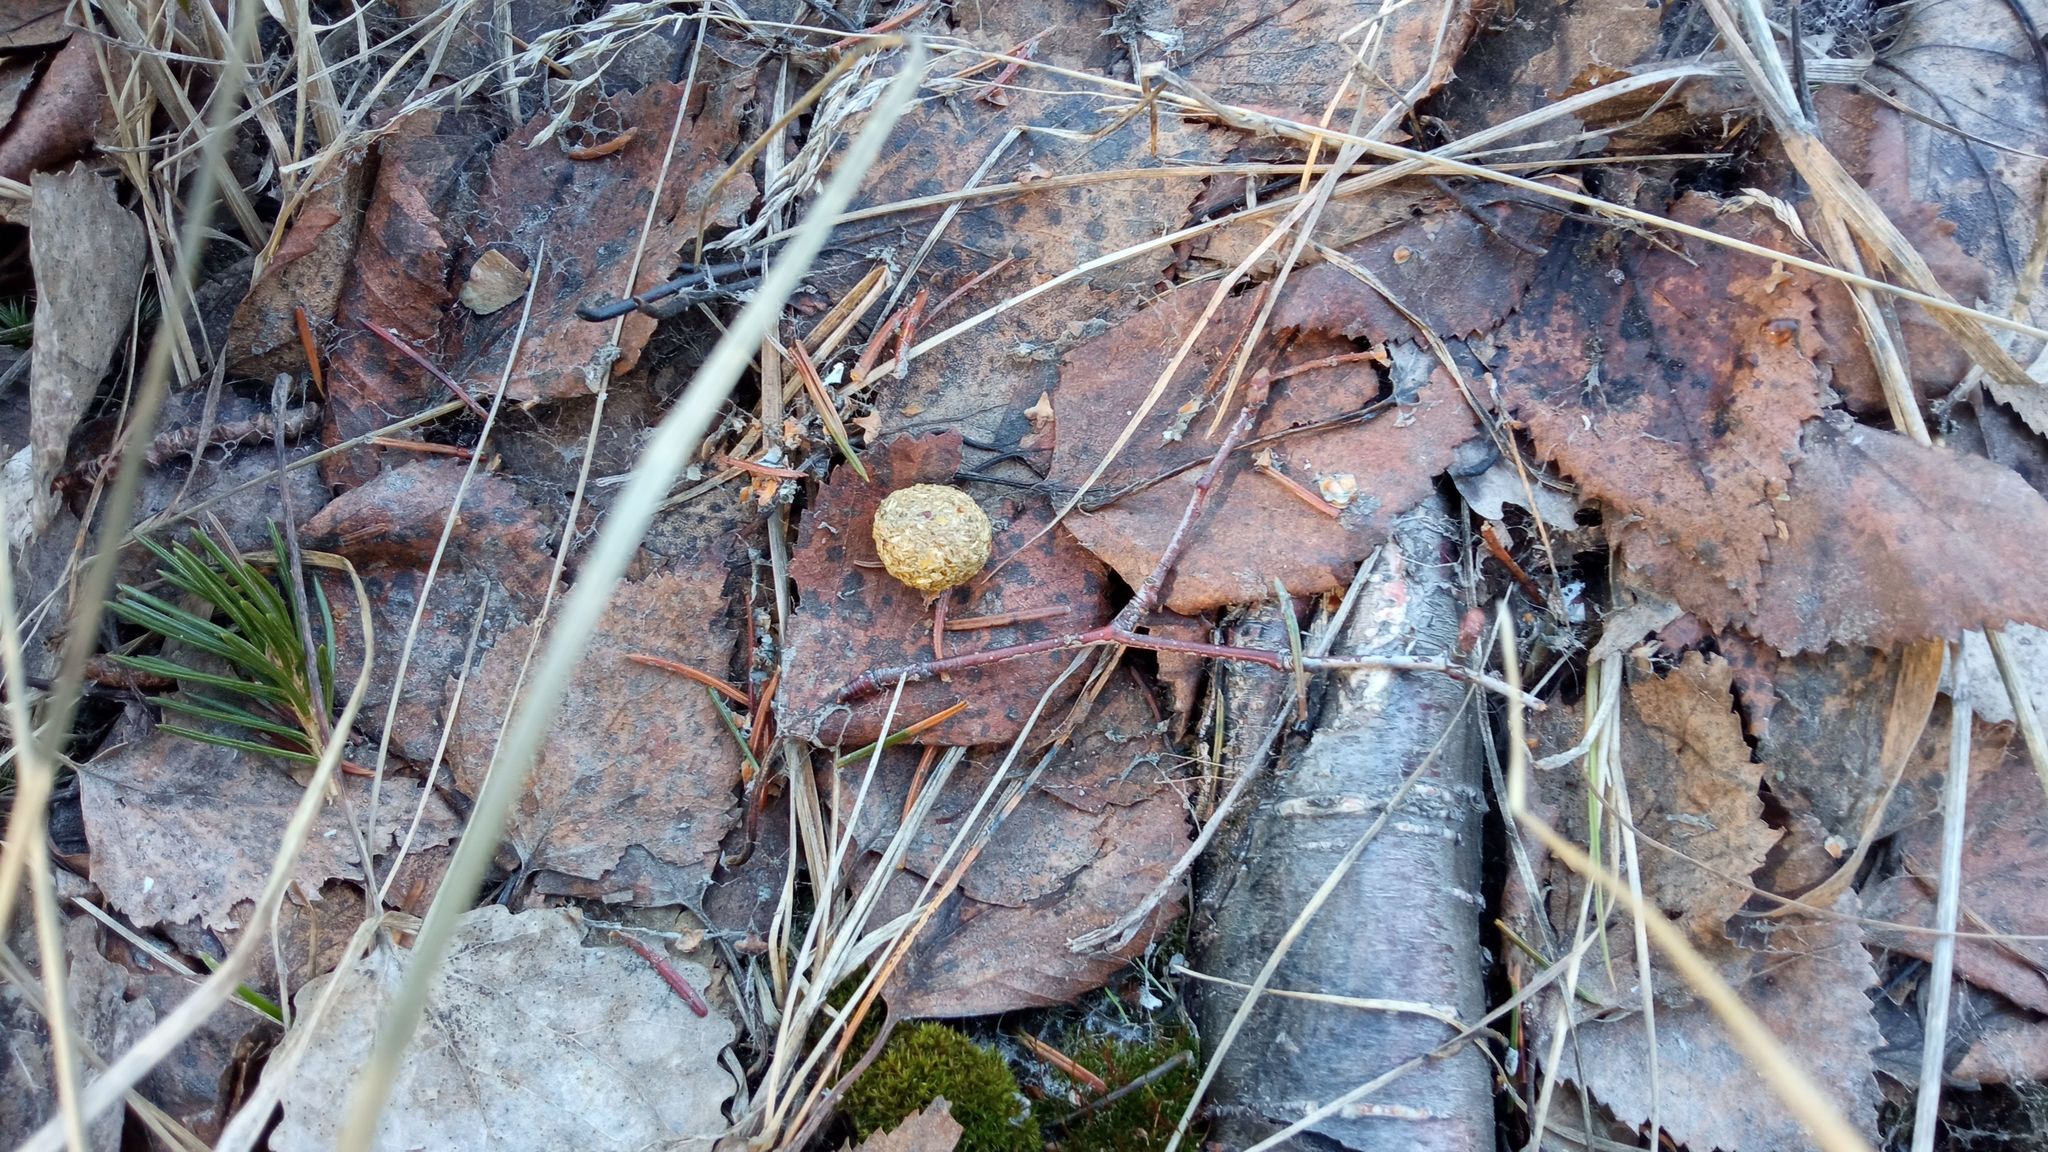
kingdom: Animalia
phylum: Chordata
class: Mammalia
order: Lagomorpha
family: Leporidae
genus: Lepus
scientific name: Lepus timidus
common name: Mountain hare
